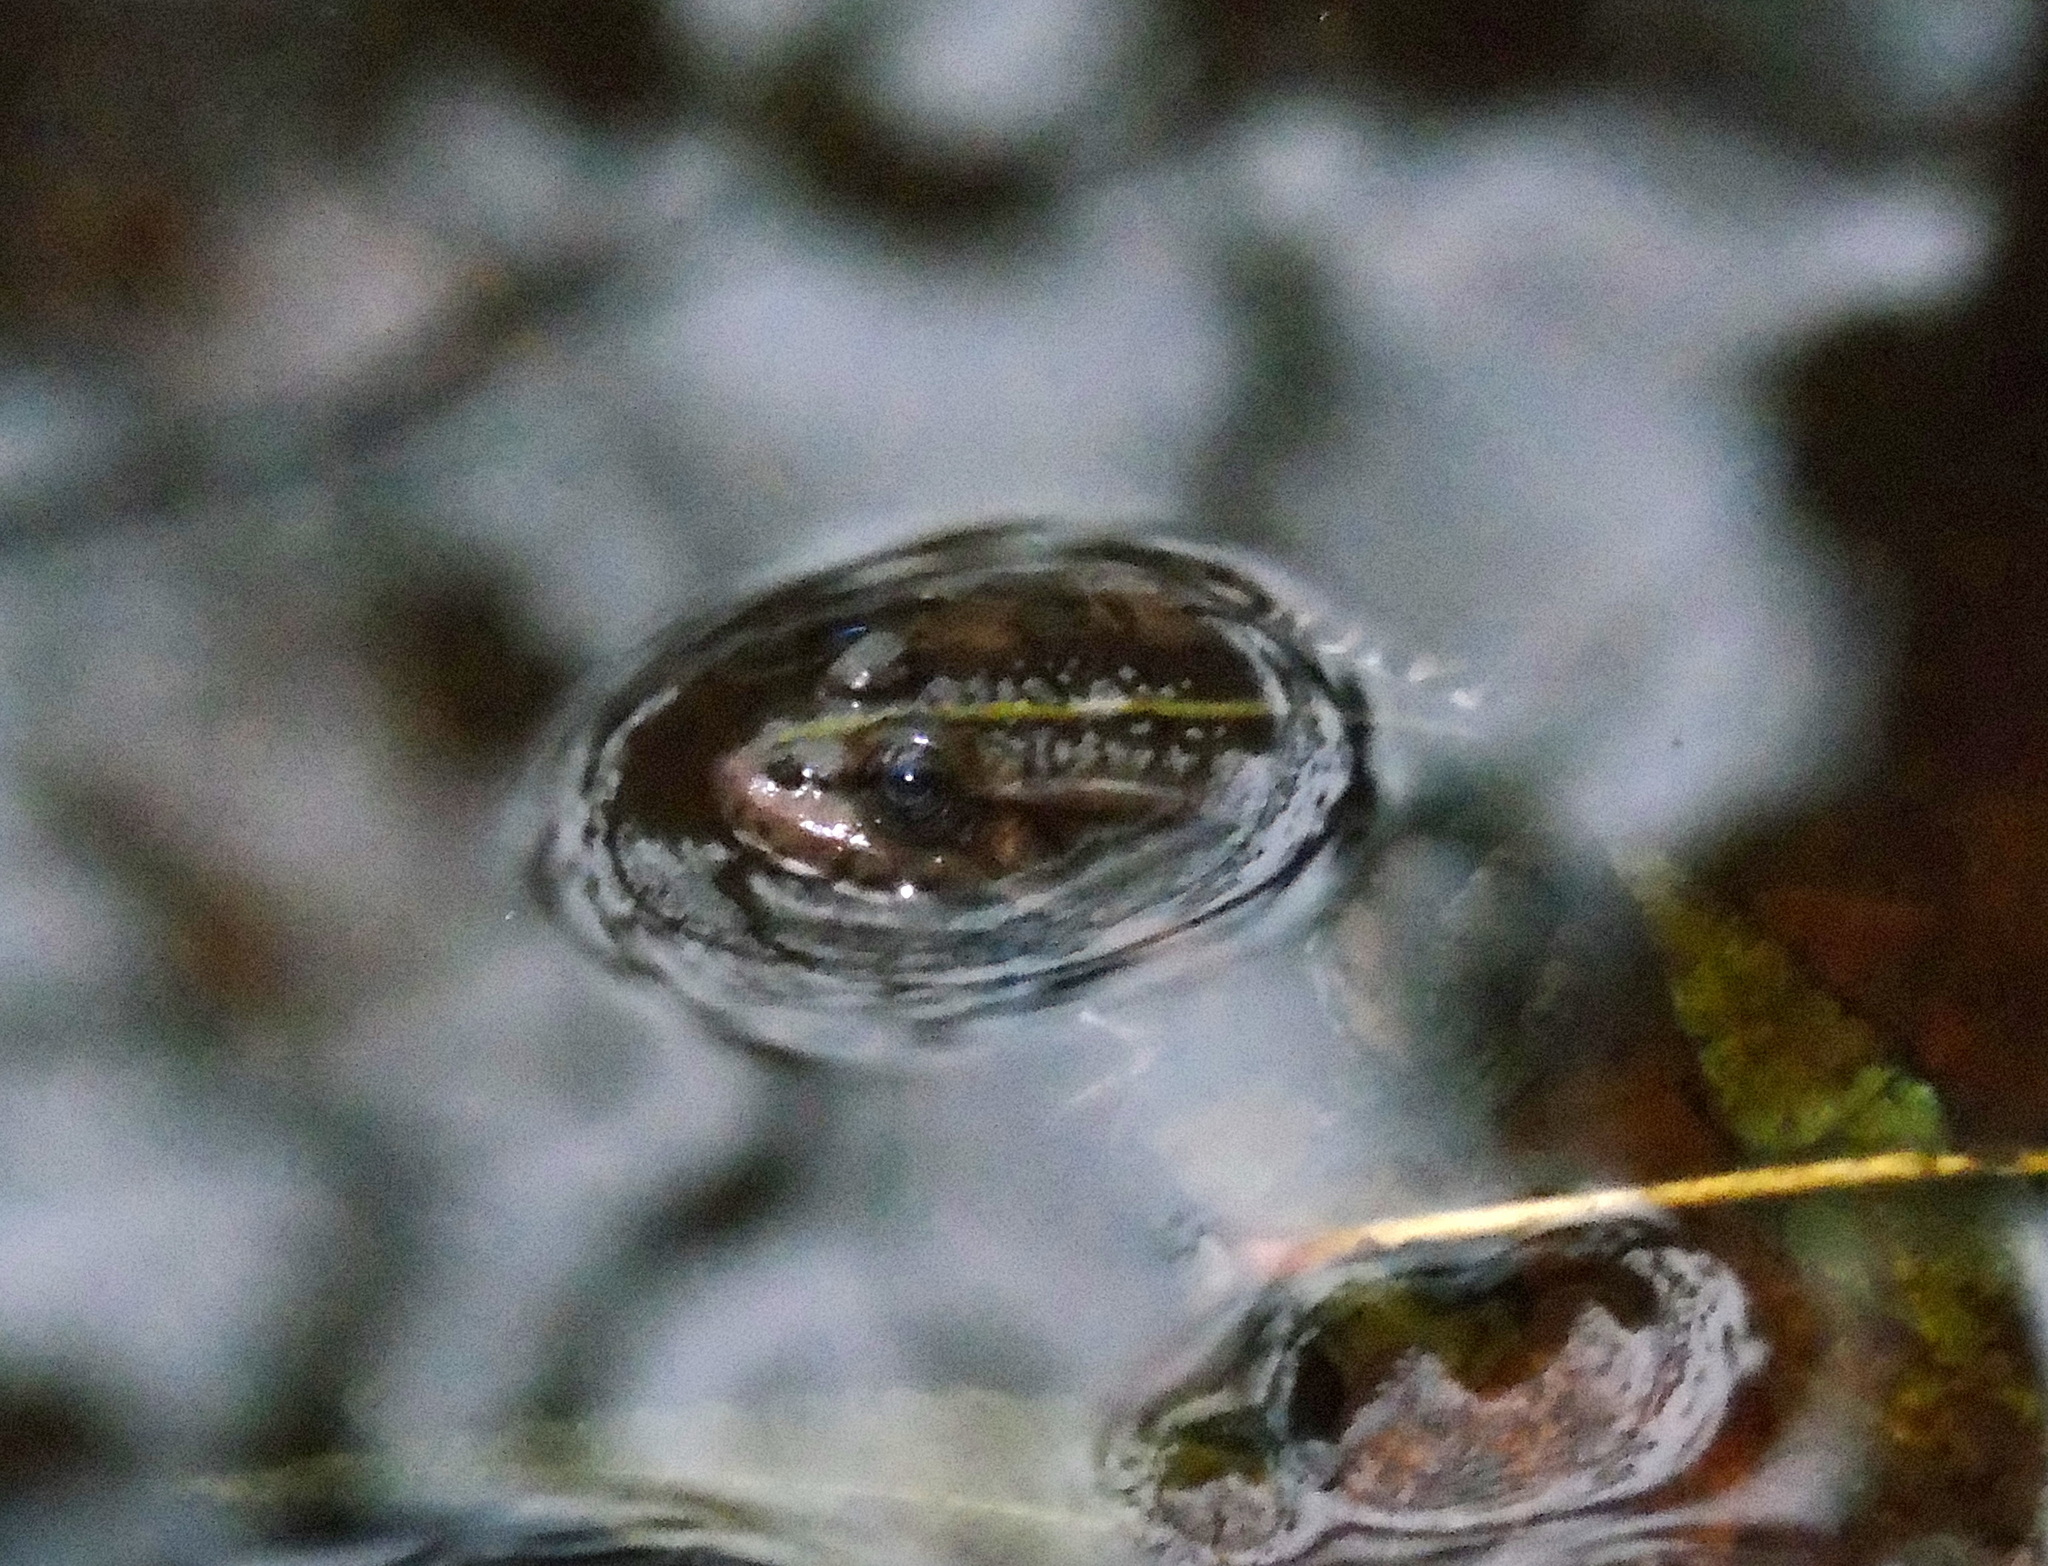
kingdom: Animalia
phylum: Chordata
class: Amphibia
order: Anura
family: Ranidae
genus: Pelophylax
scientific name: Pelophylax ridibundus
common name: Marsh frog
